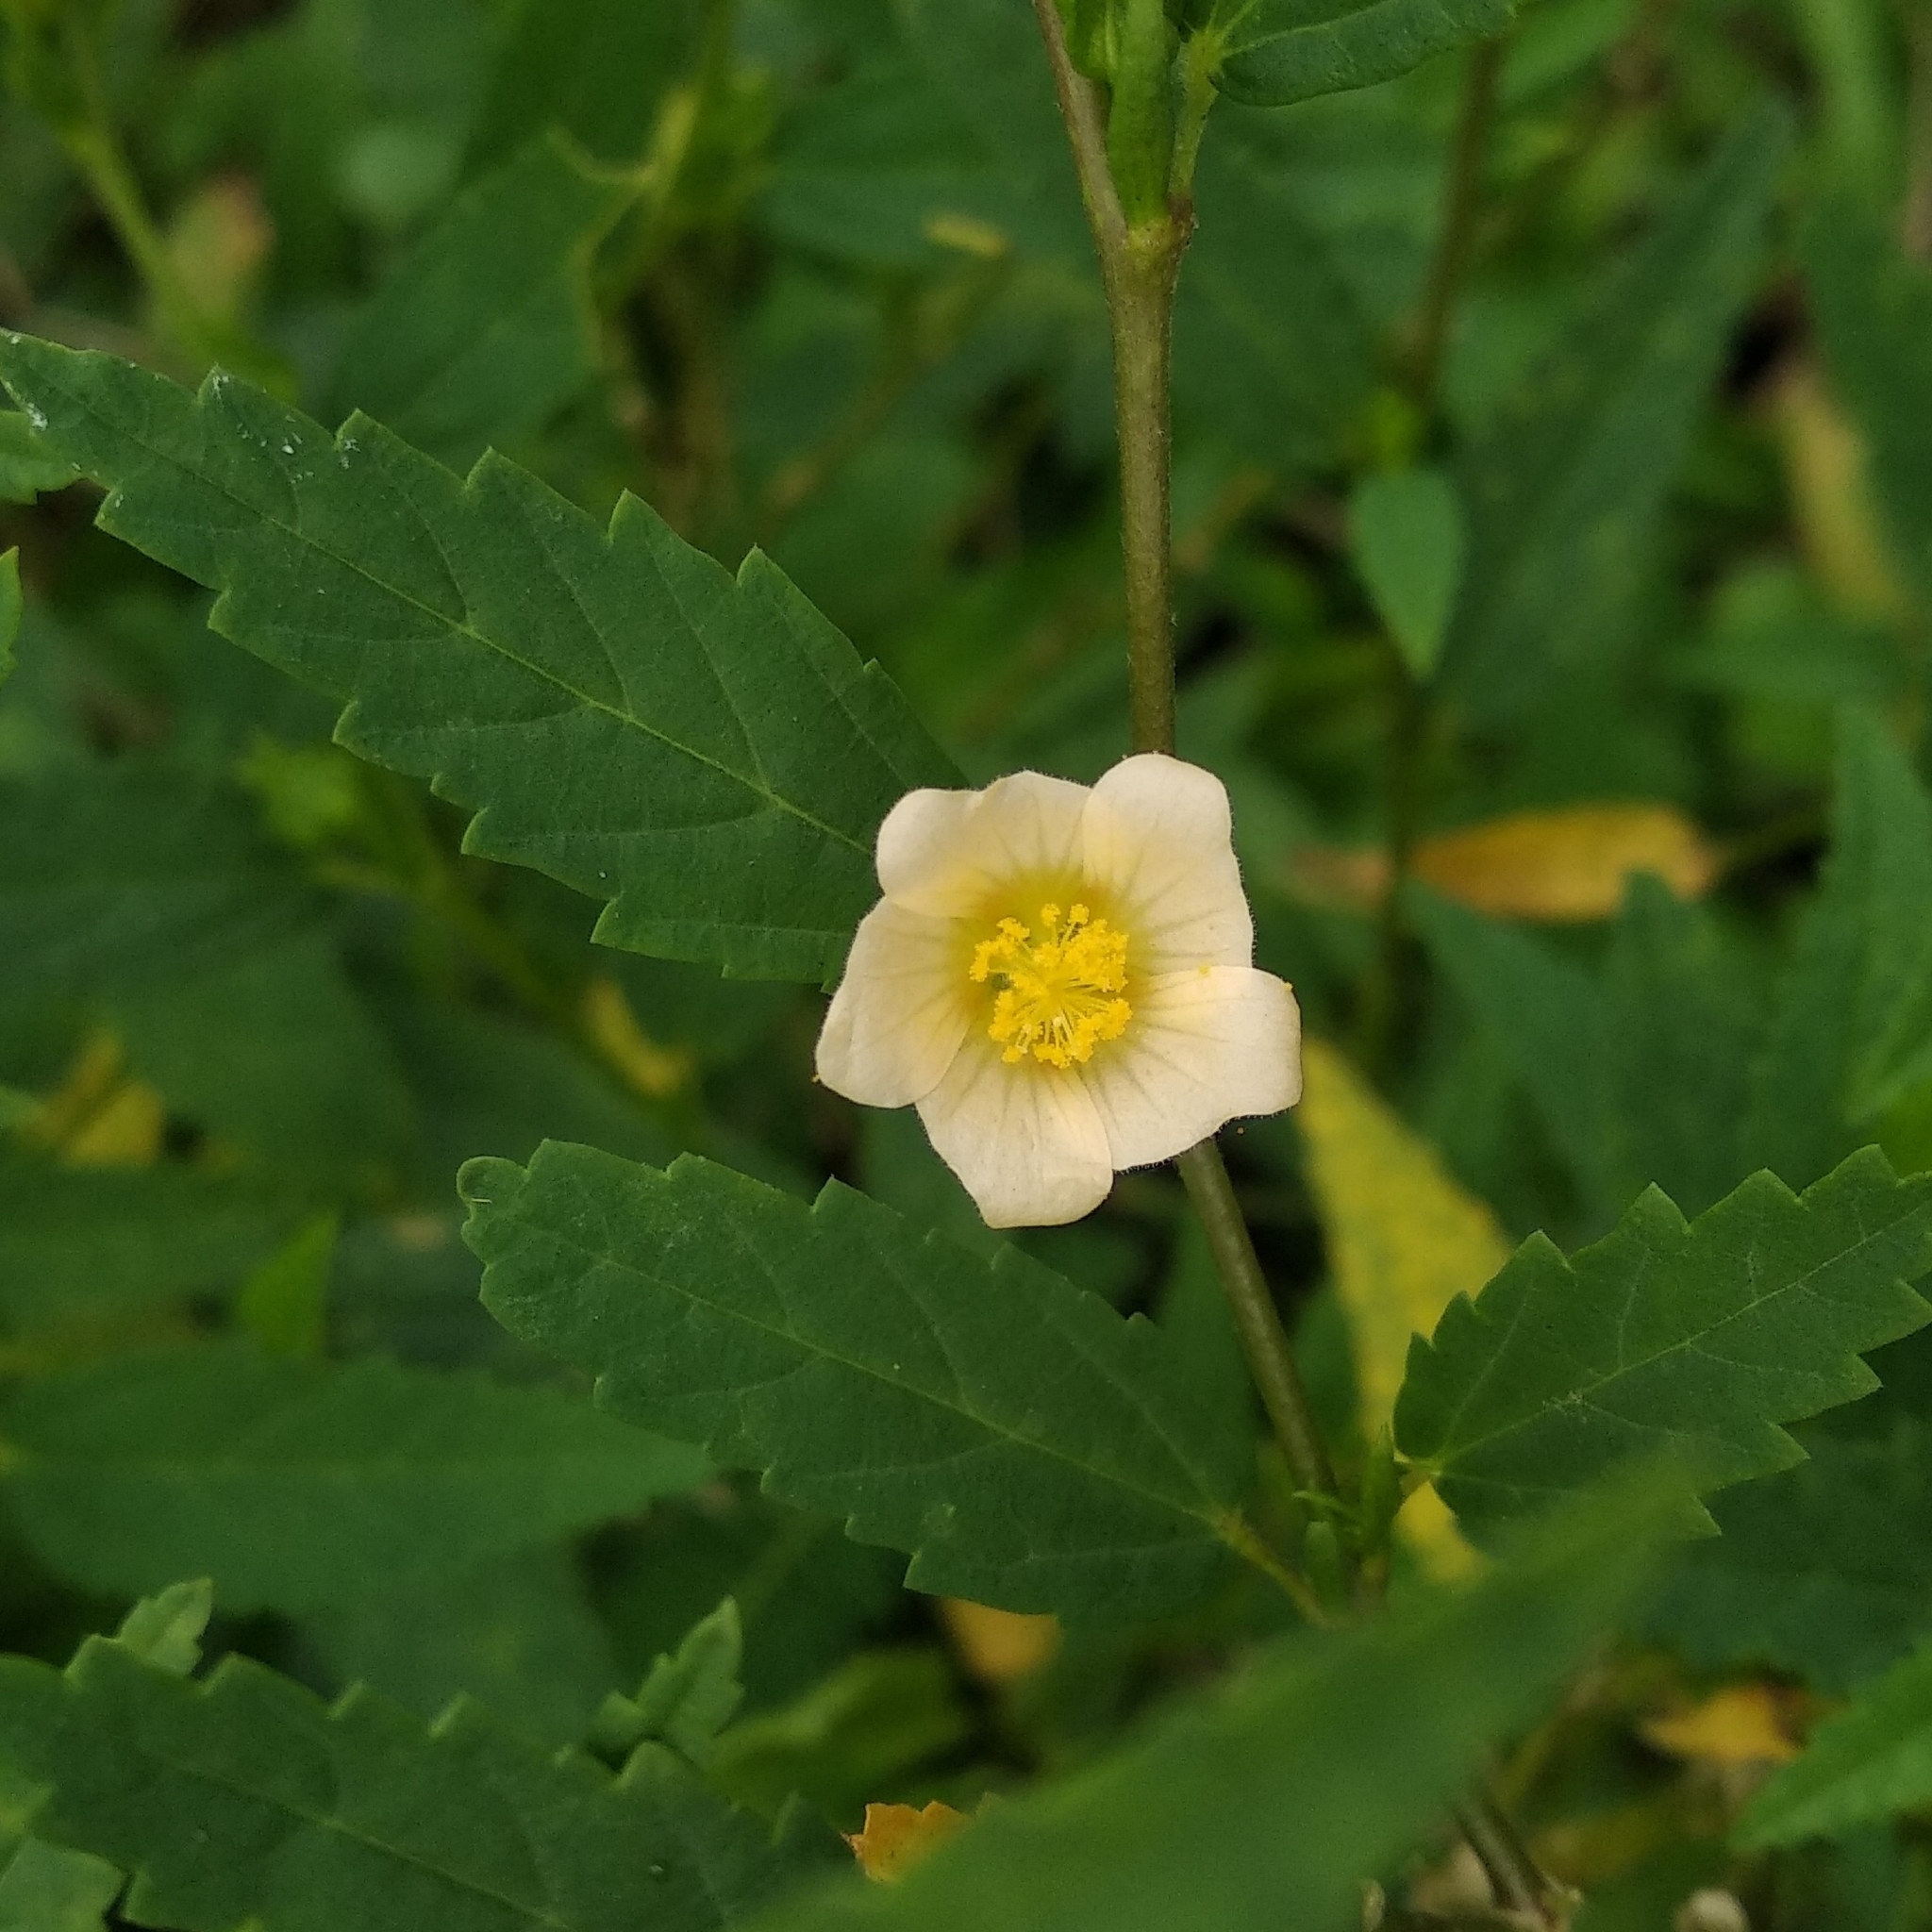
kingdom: Plantae
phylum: Tracheophyta
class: Magnoliopsida
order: Malvales
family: Malvaceae
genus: Sida
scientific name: Sida acuta
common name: Common wireweed
